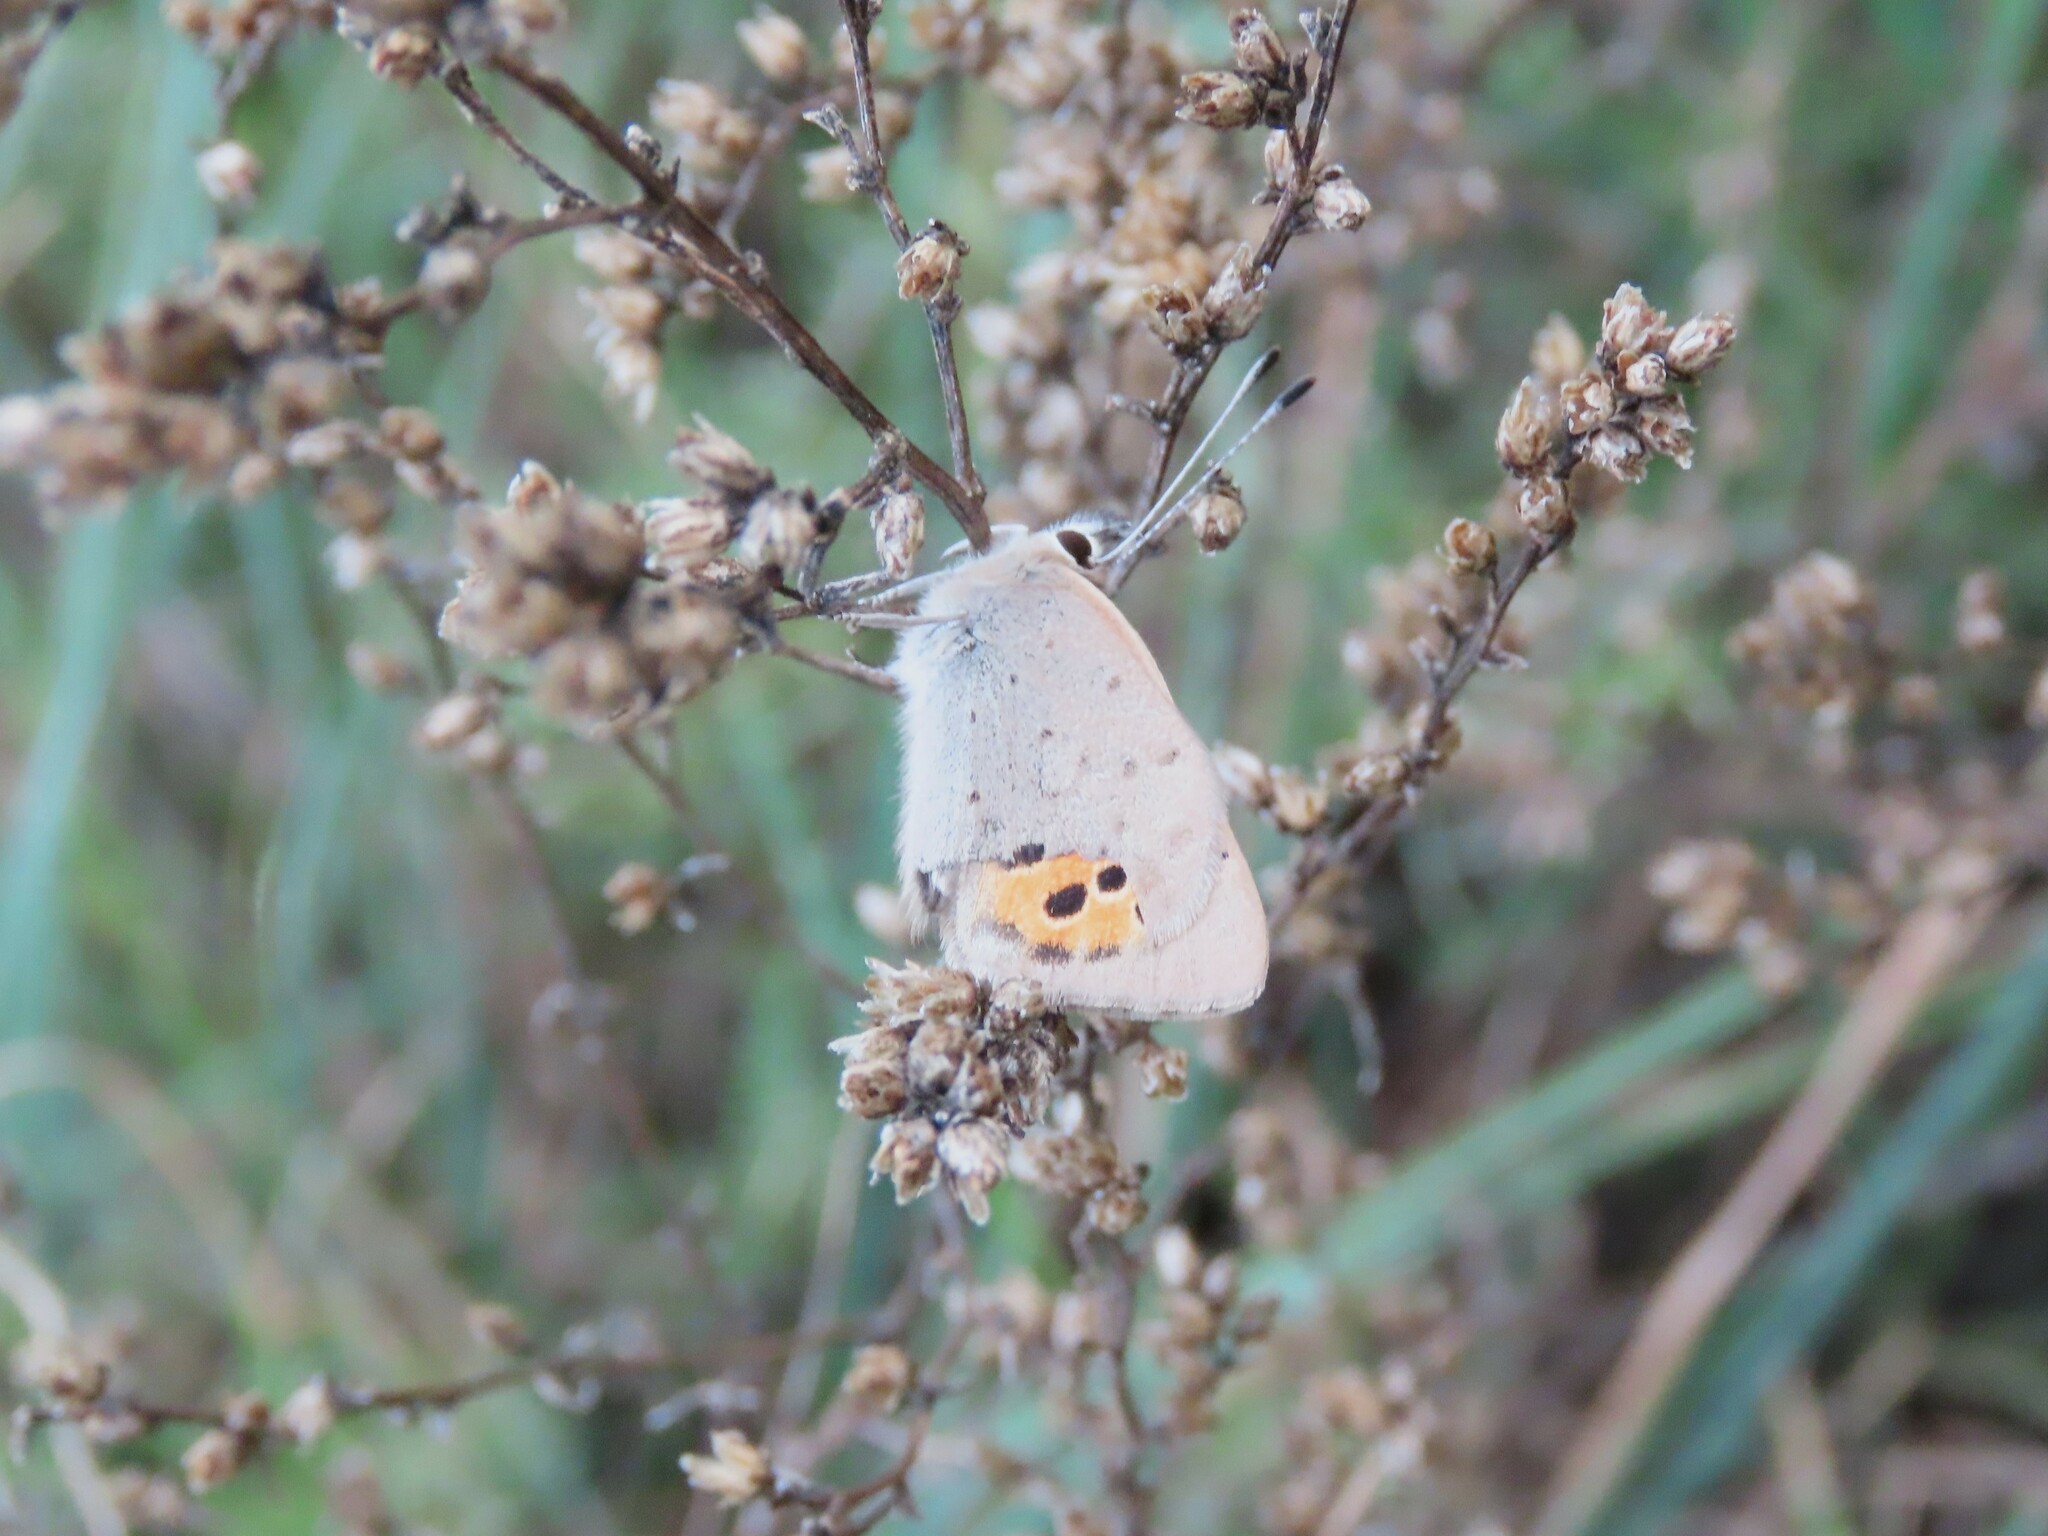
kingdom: Animalia
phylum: Arthropoda
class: Insecta
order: Lepidoptera
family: Lycaenidae
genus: Lycaena
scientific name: Lycaena phlaeas
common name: Small copper
